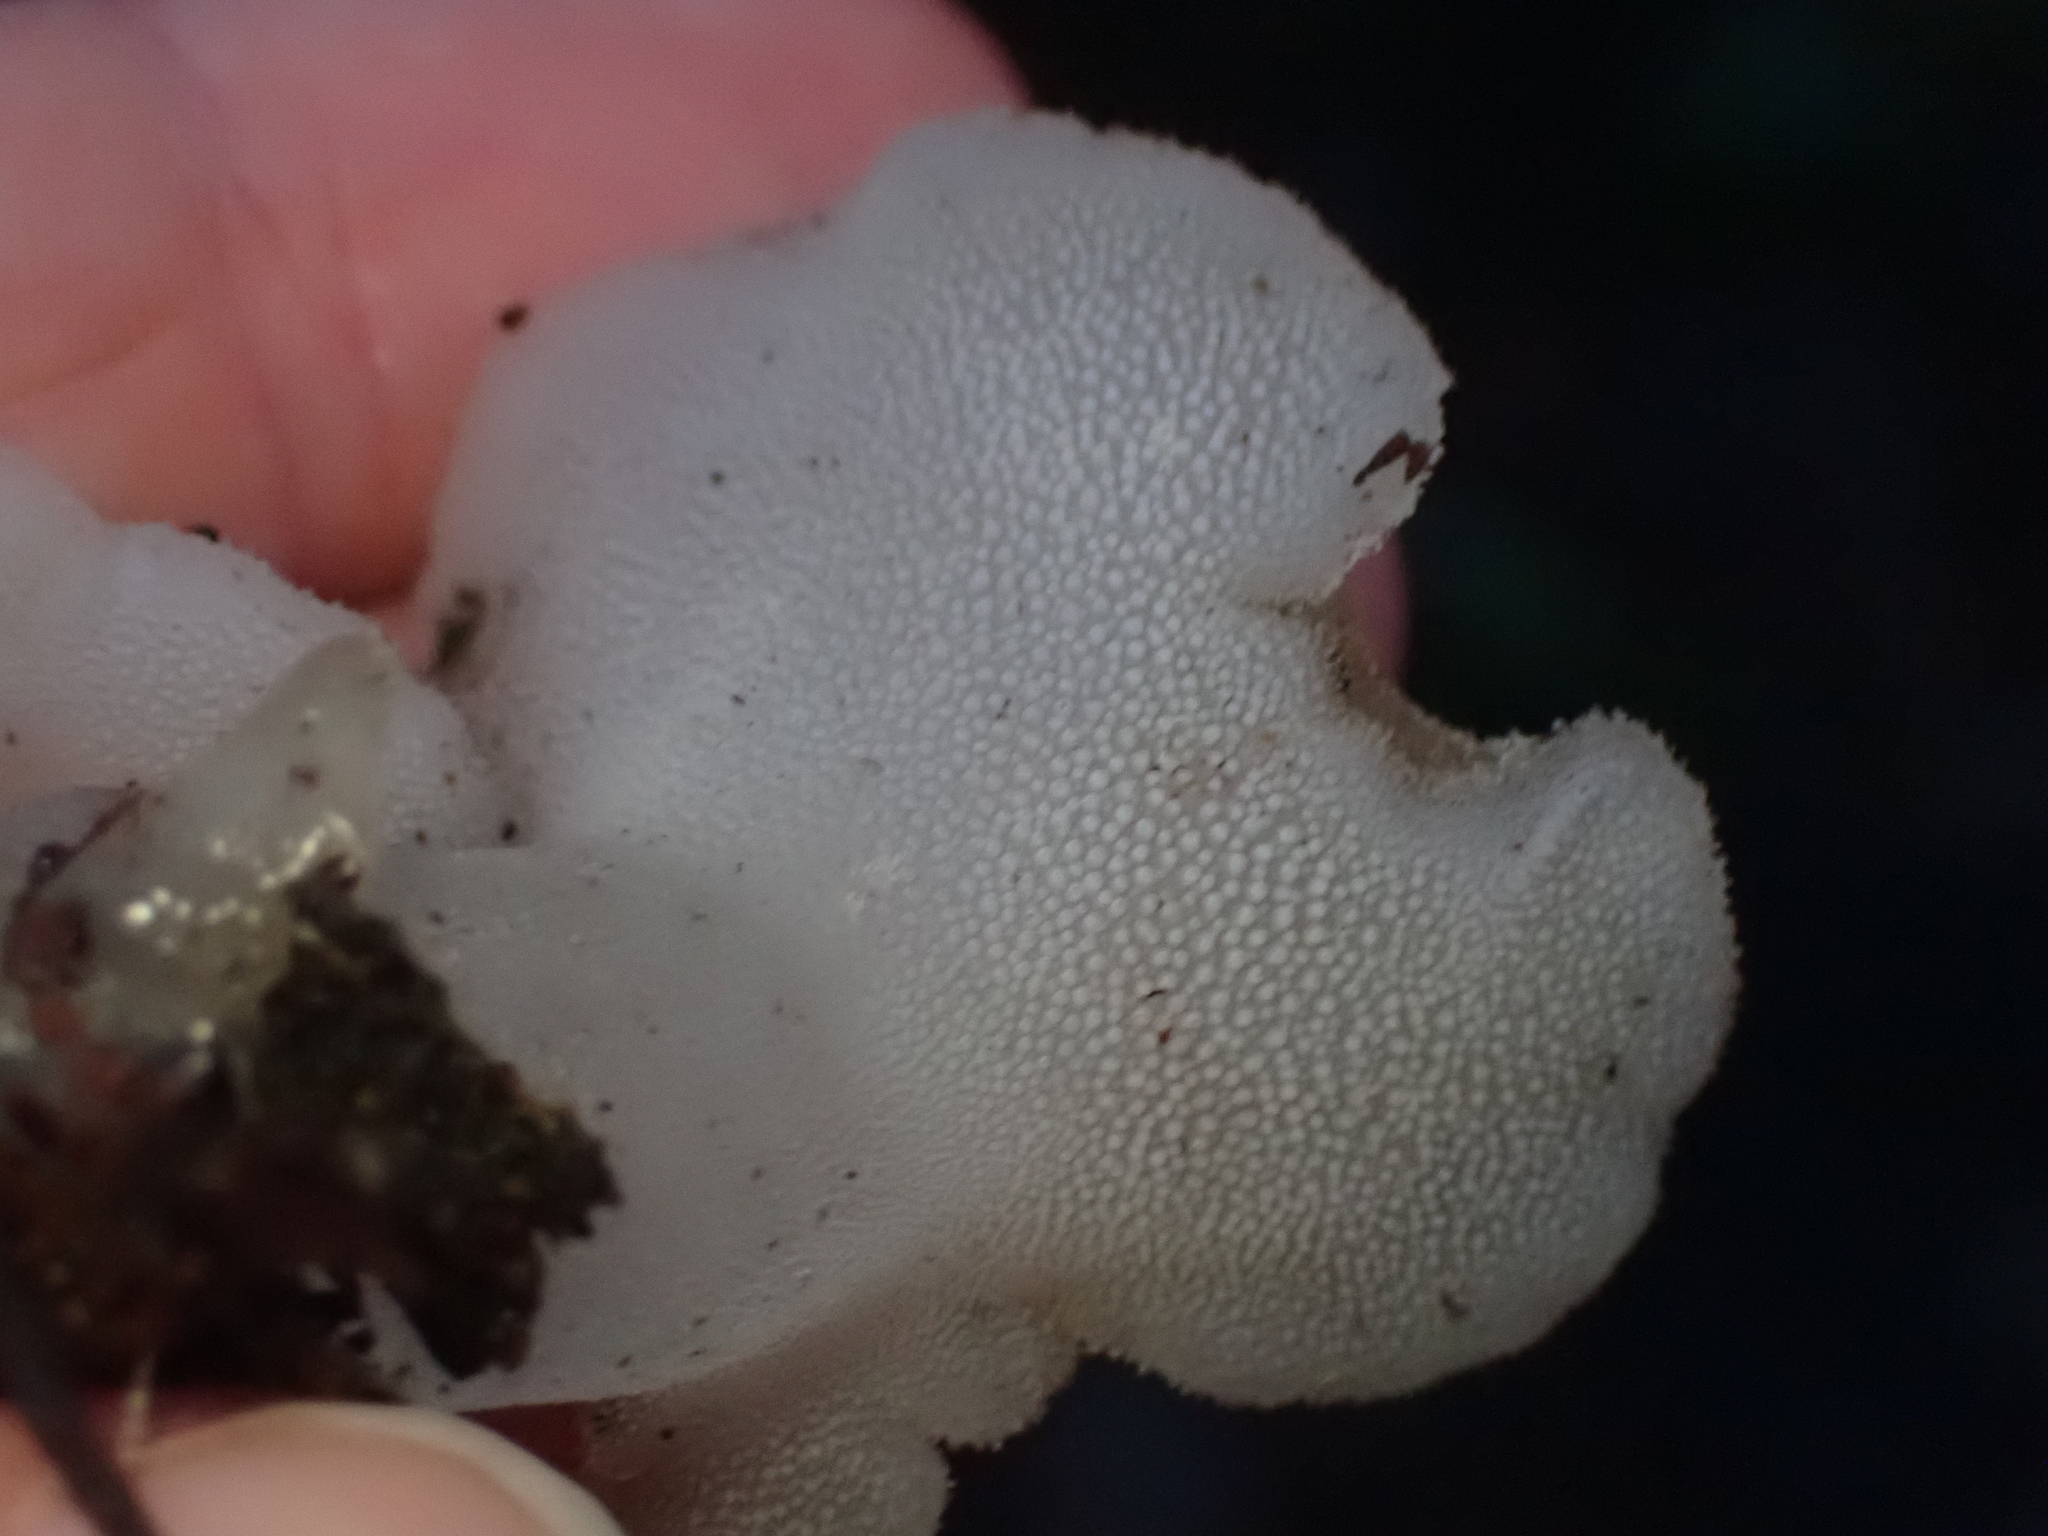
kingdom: Fungi
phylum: Basidiomycota
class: Agaricomycetes
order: Auriculariales
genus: Pseudohydnum
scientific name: Pseudohydnum gelatinosum
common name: Jelly tongue
